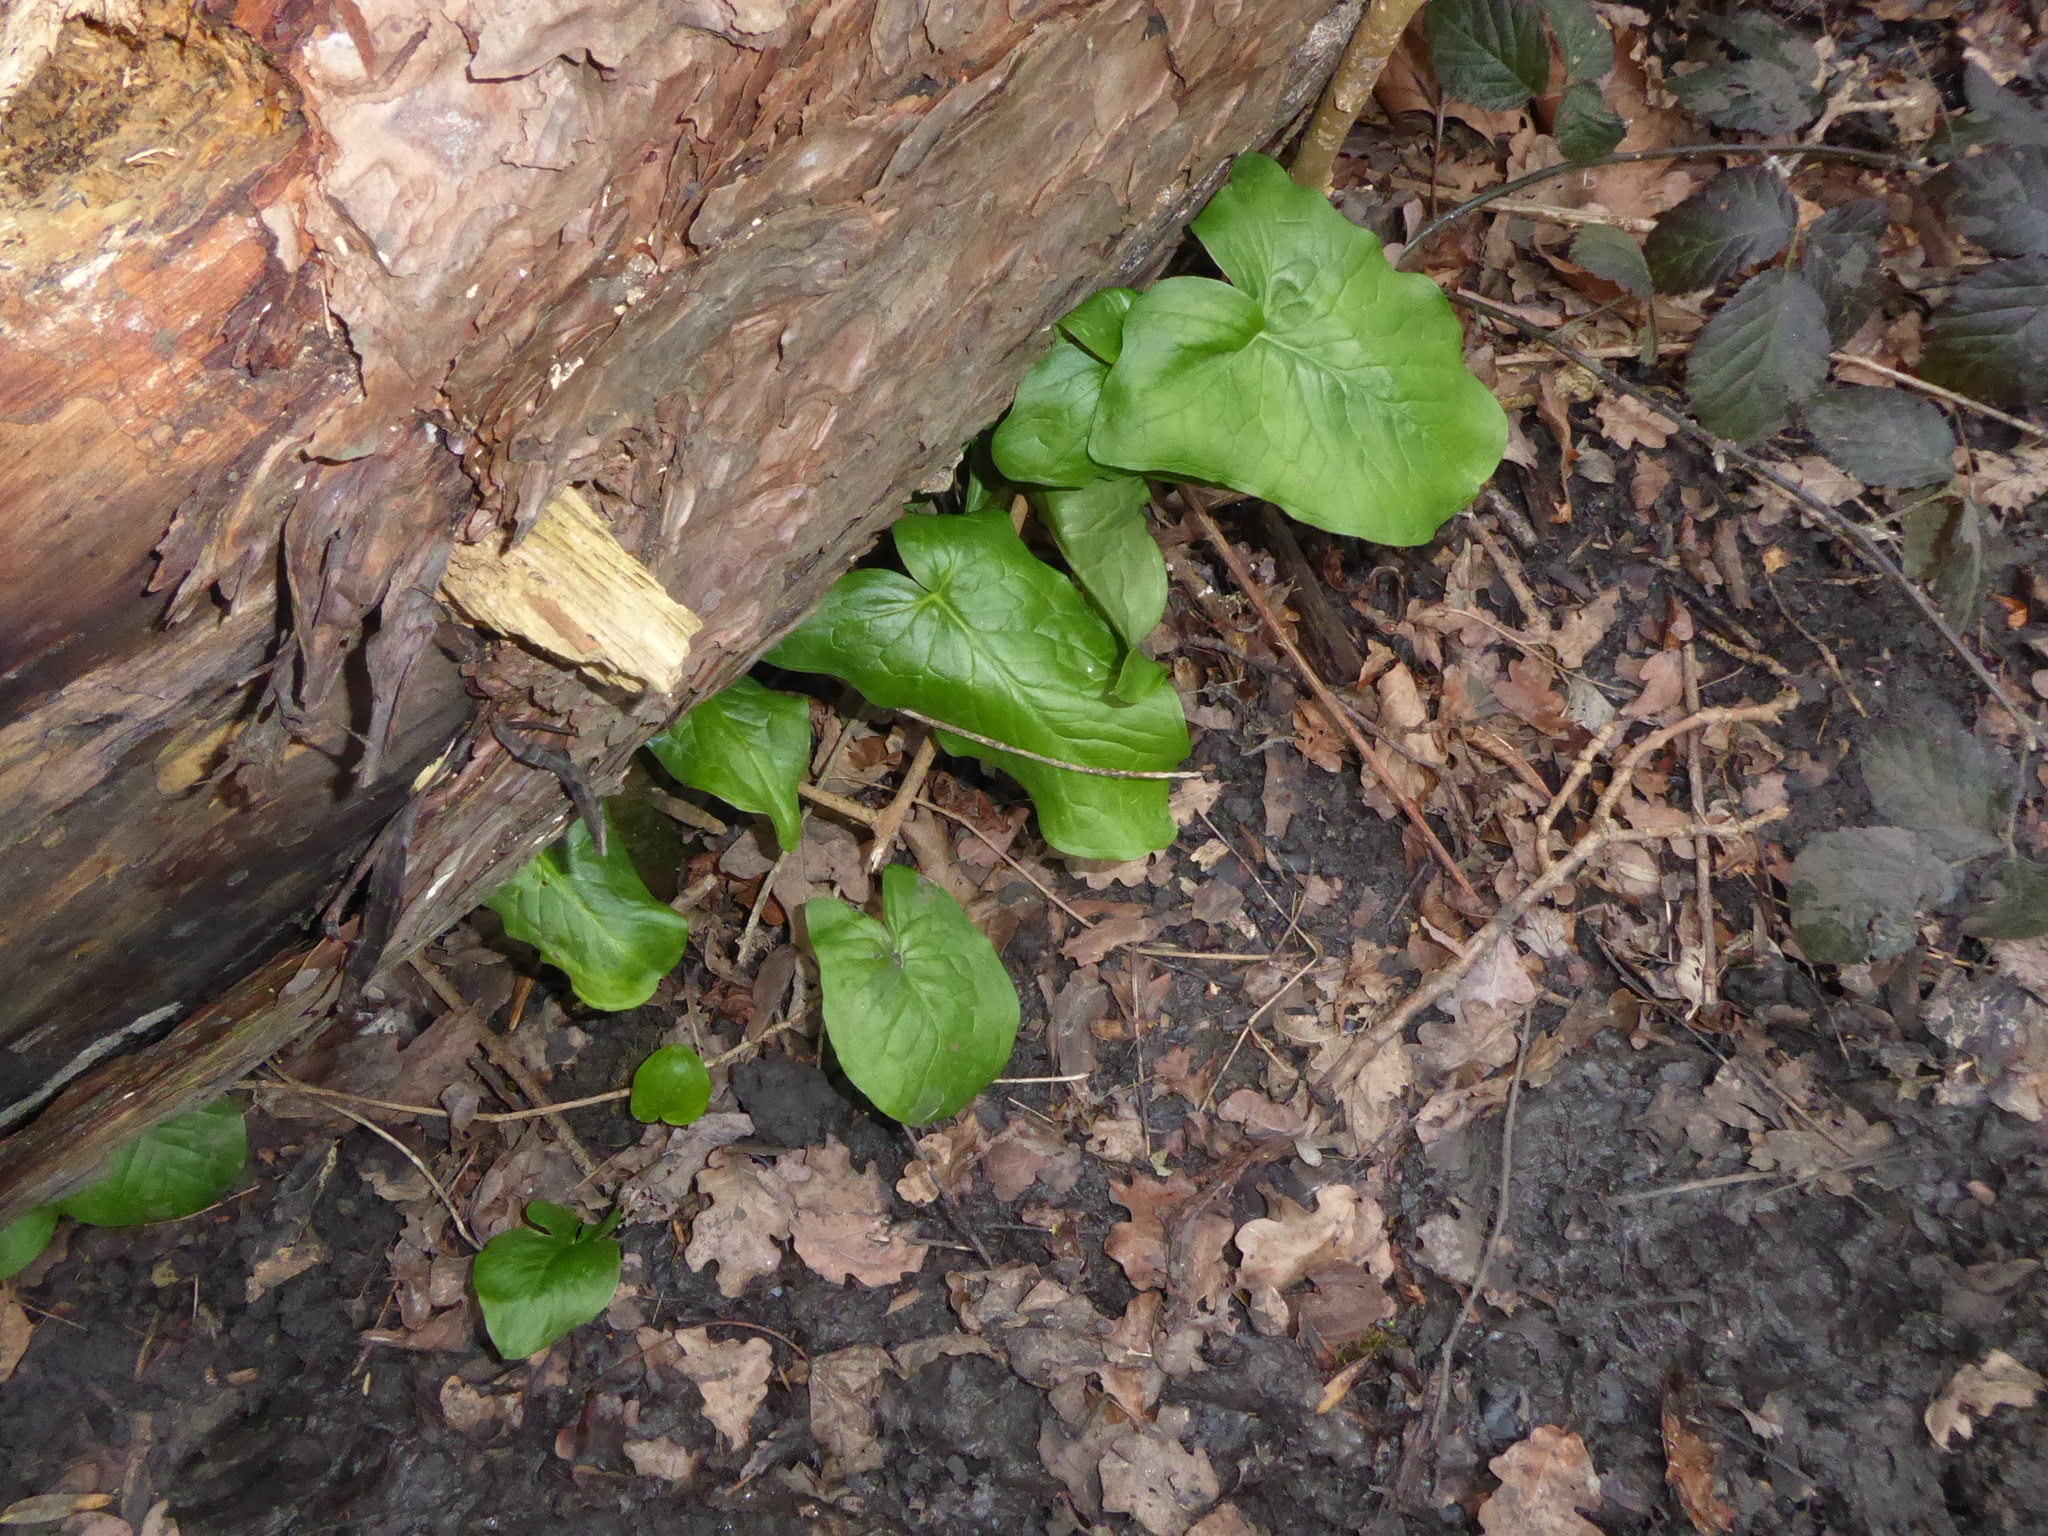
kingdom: Plantae
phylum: Tracheophyta
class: Liliopsida
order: Alismatales
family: Araceae
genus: Arum
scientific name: Arum maculatum
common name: Lords-and-ladies
